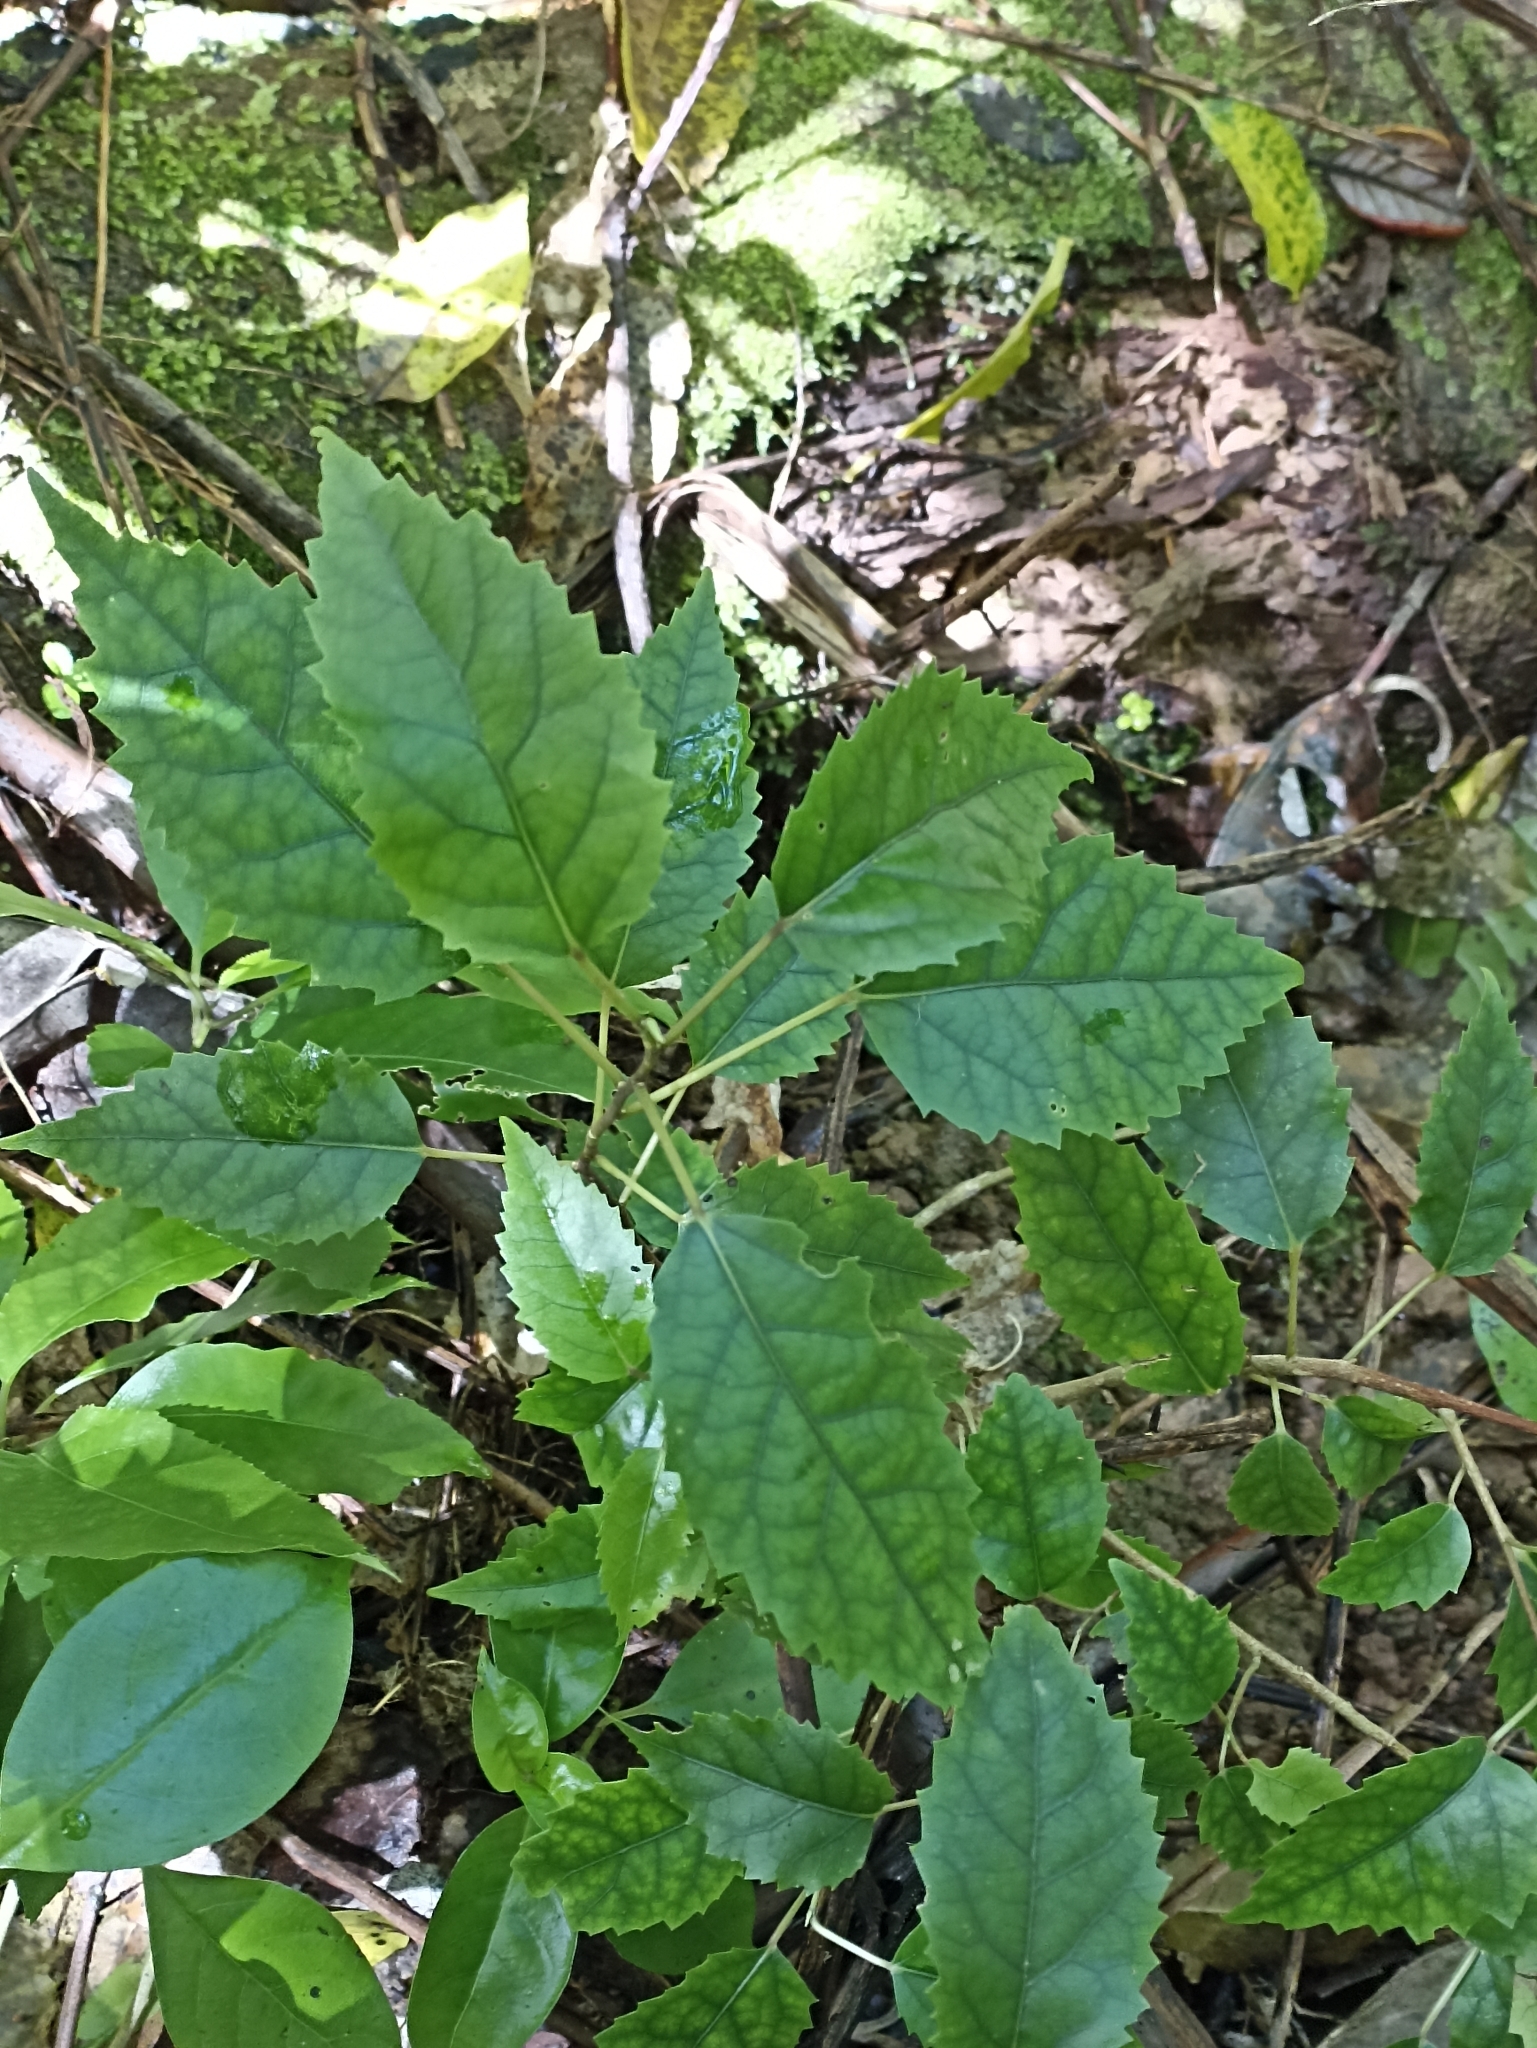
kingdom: Plantae
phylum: Tracheophyta
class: Magnoliopsida
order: Malvales
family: Malvaceae
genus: Hoheria
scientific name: Hoheria populnea
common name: Lacebark
